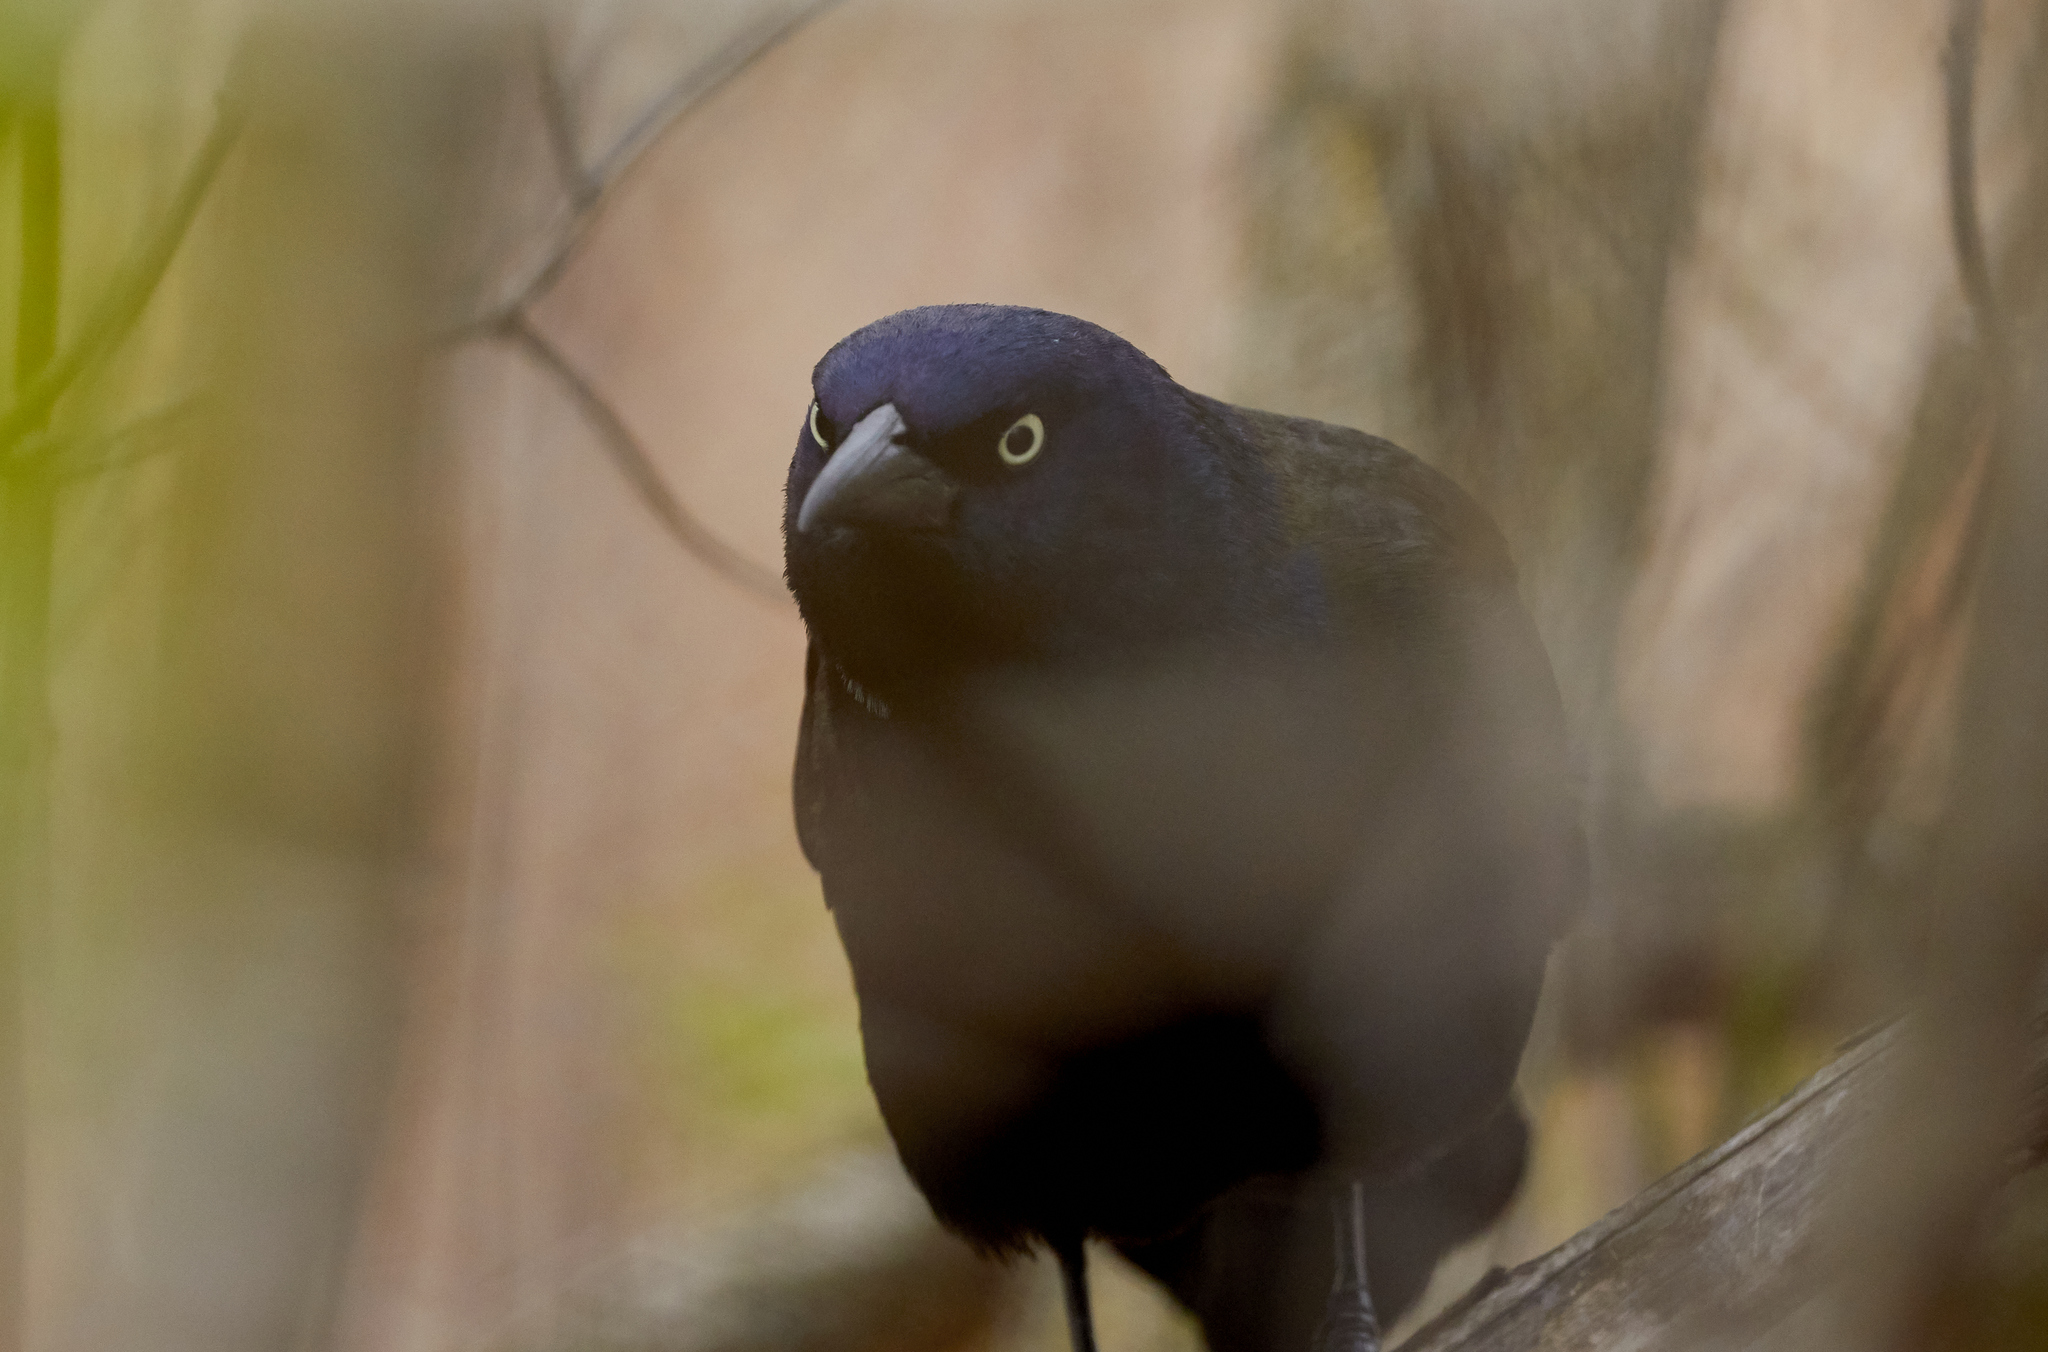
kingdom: Animalia
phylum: Chordata
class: Aves
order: Passeriformes
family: Icteridae
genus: Quiscalus
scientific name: Quiscalus quiscula
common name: Common grackle
